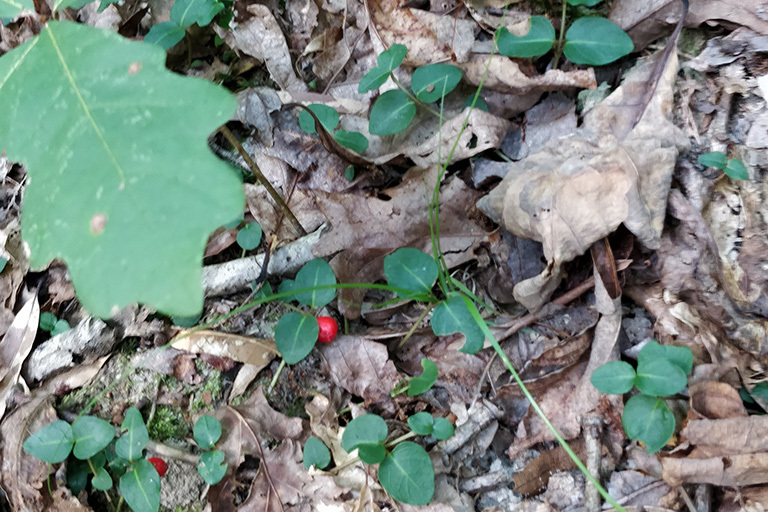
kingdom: Plantae
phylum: Tracheophyta
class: Magnoliopsida
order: Gentianales
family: Rubiaceae
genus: Mitchella
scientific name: Mitchella repens
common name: Partridge-berry
